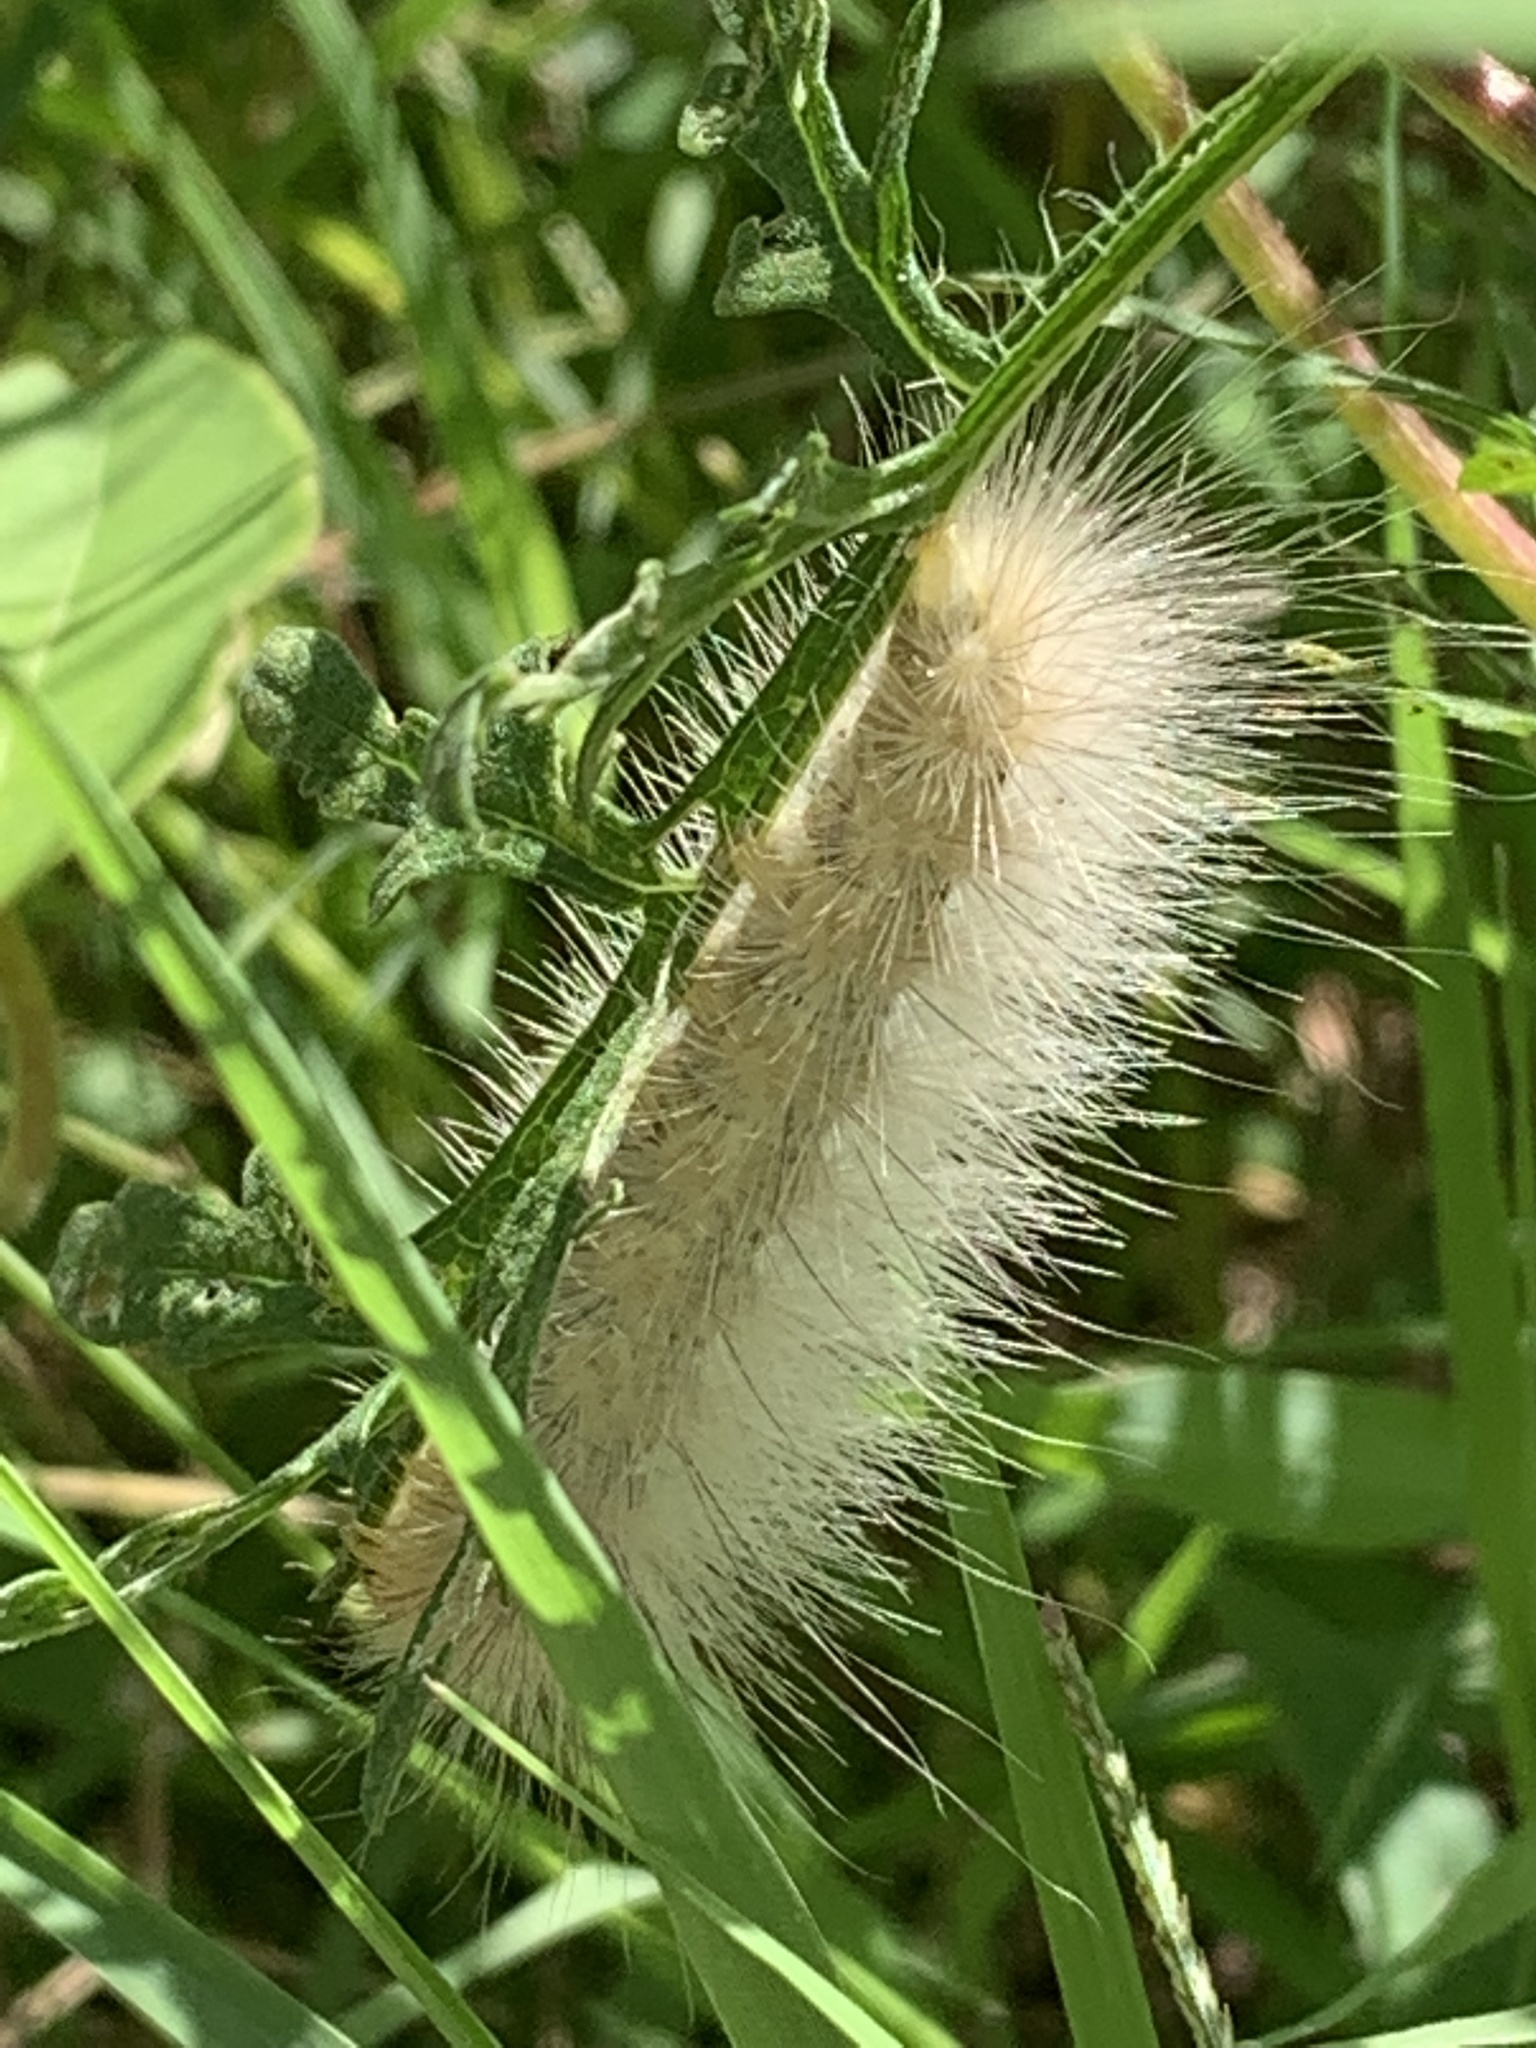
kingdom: Animalia
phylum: Arthropoda
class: Insecta
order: Lepidoptera
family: Erebidae
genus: Spilosoma
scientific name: Spilosoma virginica
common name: Virginia tiger moth
